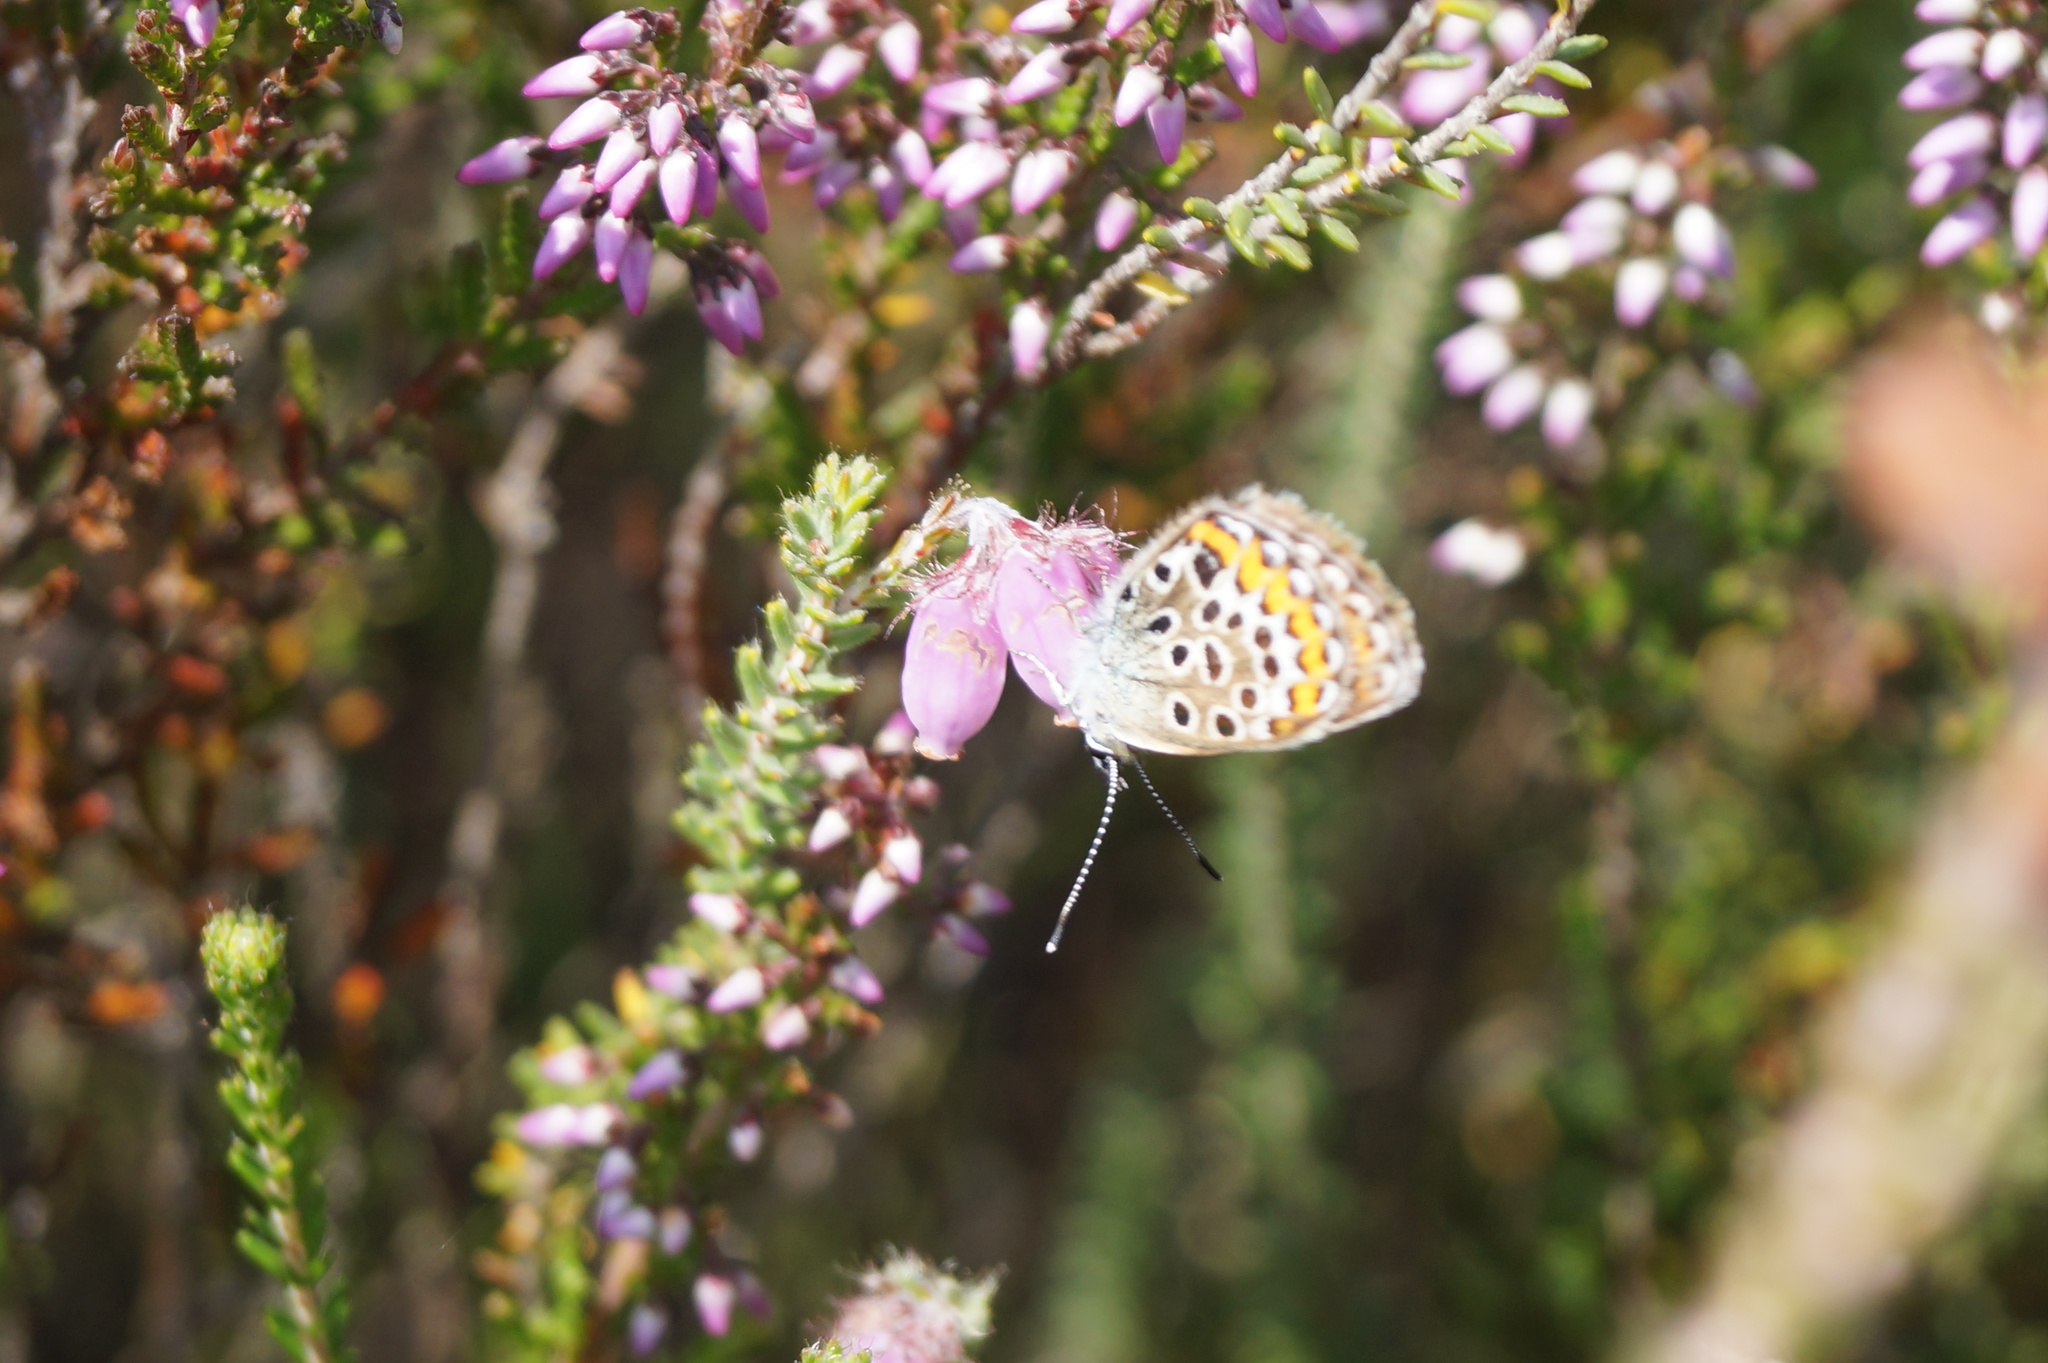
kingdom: Animalia
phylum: Arthropoda
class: Insecta
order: Lepidoptera
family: Lycaenidae
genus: Plebejus
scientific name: Plebejus argus
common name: Silver-studded blue
